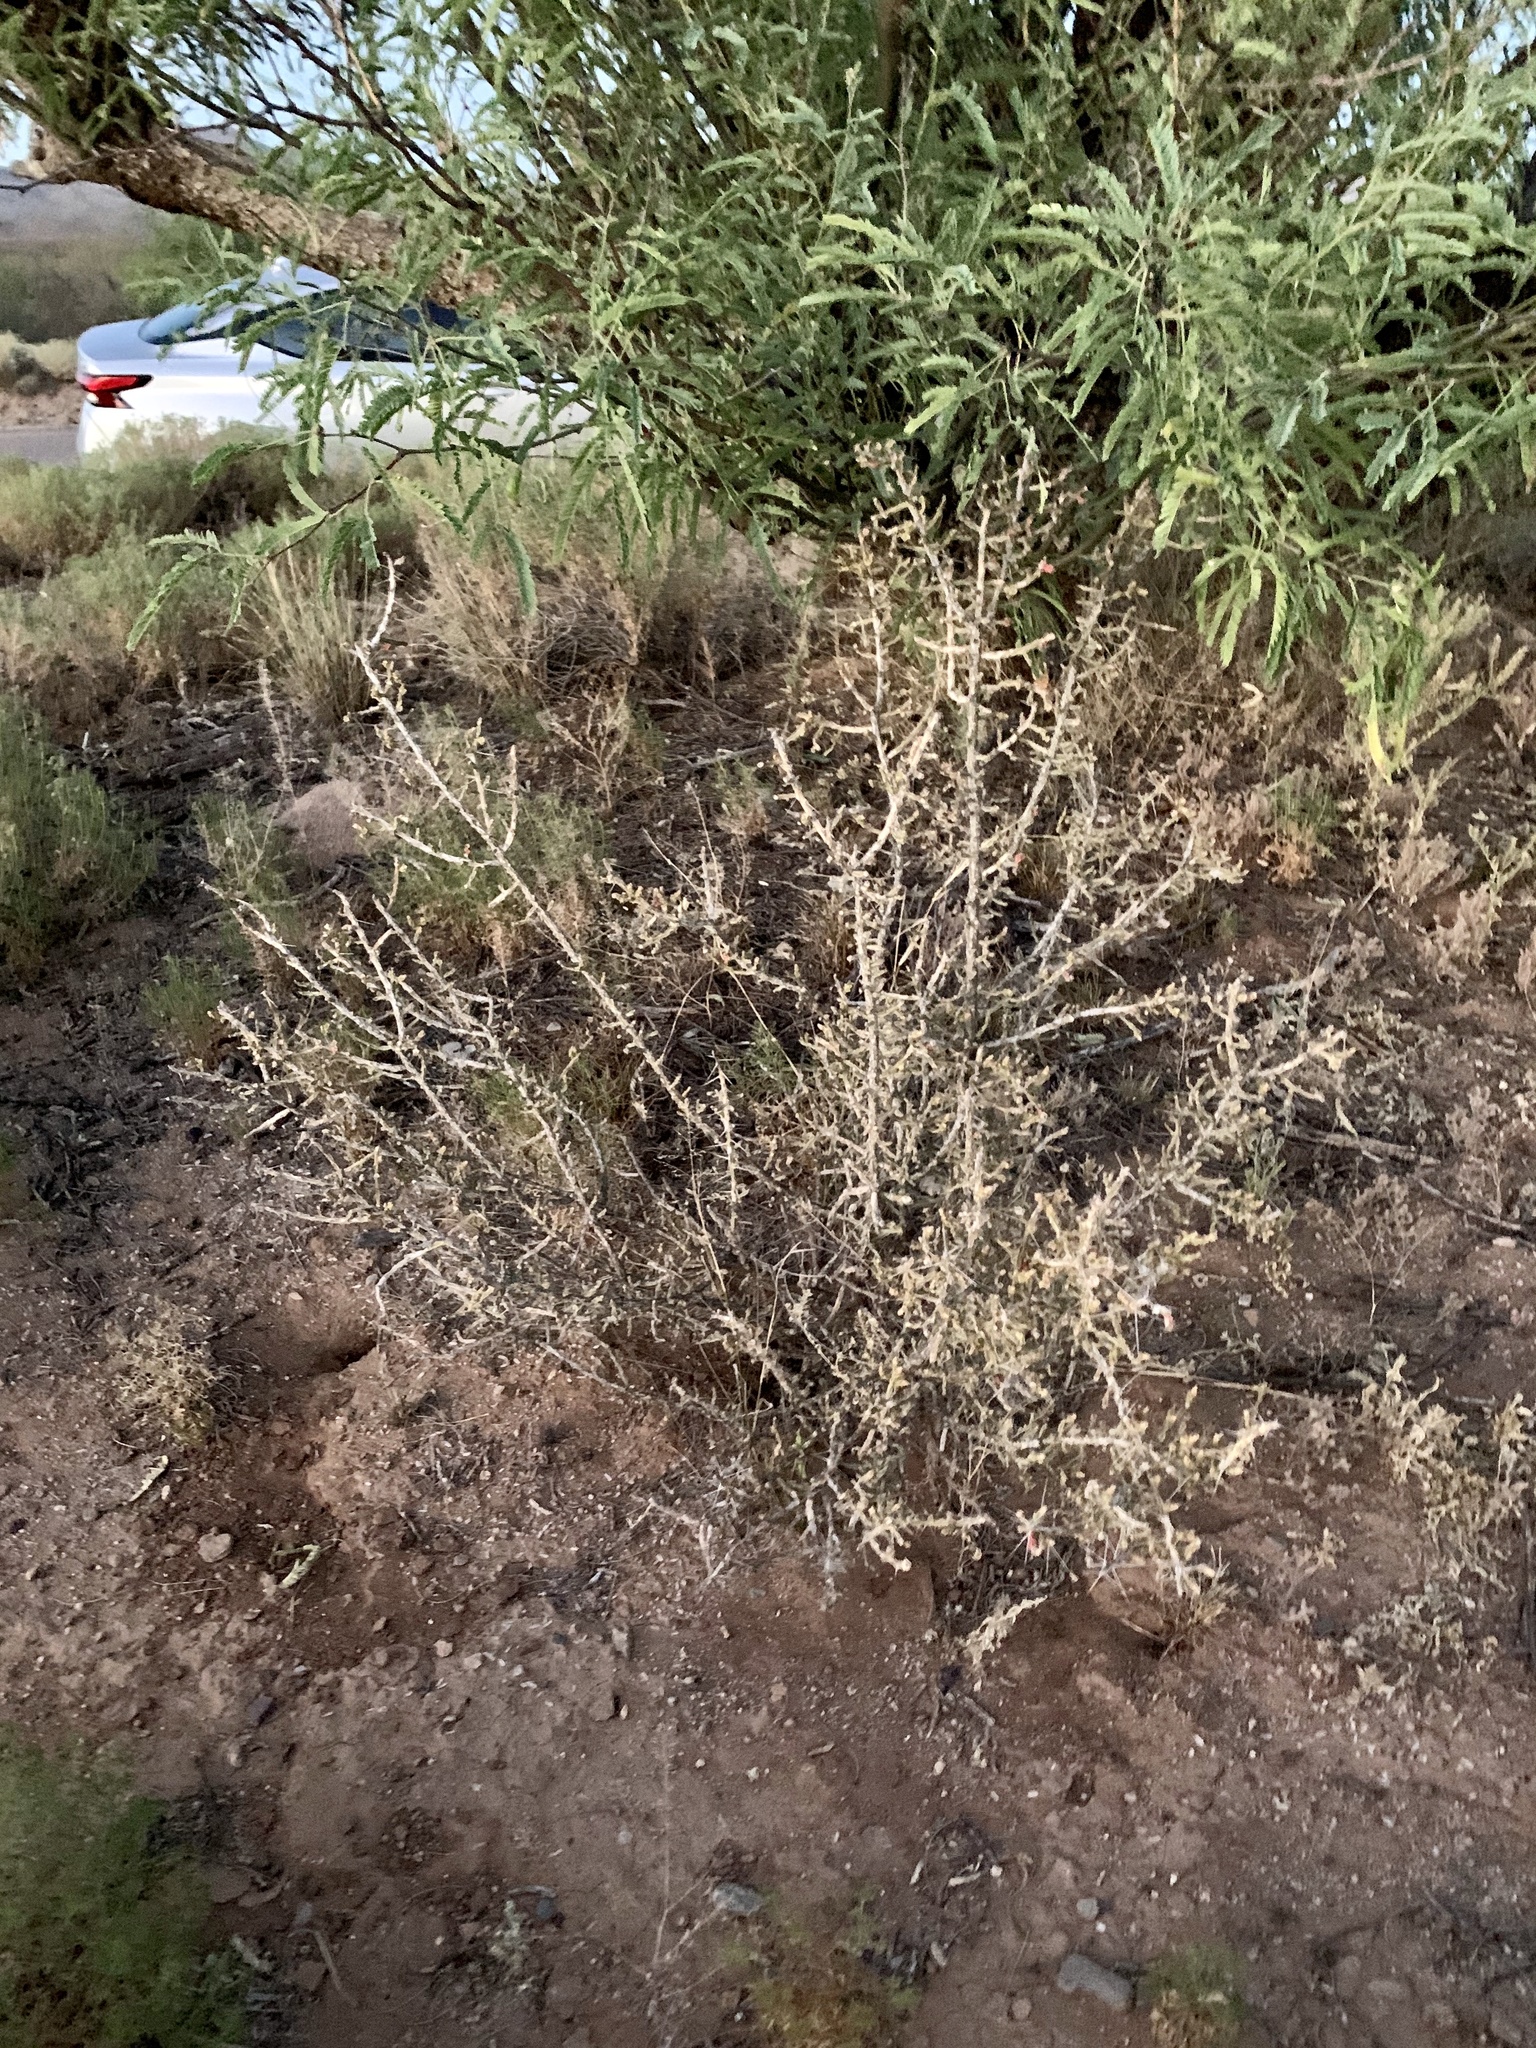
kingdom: Plantae
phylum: Tracheophyta
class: Magnoliopsida
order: Caryophyllales
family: Cactaceae
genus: Cylindropuntia
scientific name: Cylindropuntia leptocaulis
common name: Christmas cactus
